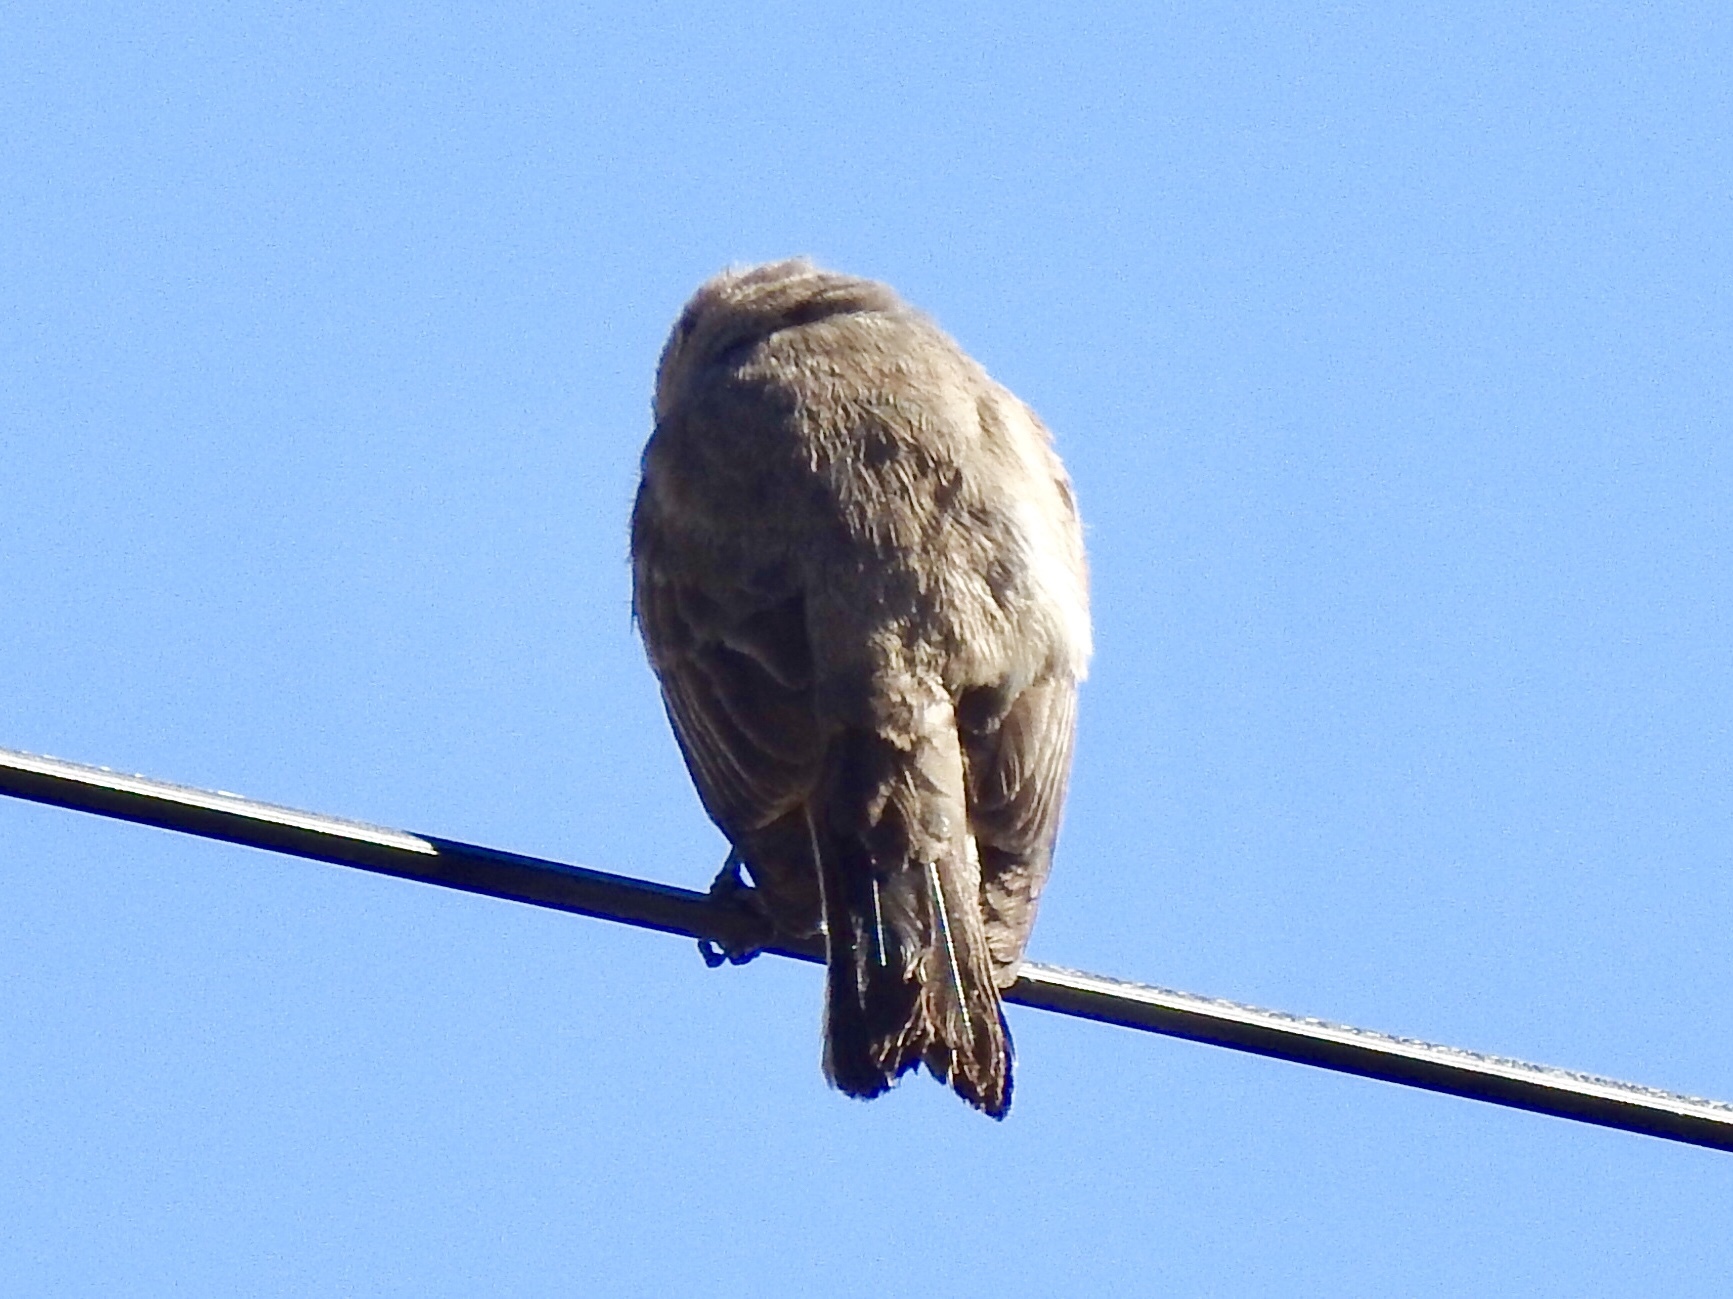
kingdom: Animalia
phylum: Chordata
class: Aves
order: Passeriformes
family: Tyrannidae
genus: Pyrocephalus
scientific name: Pyrocephalus rubinus
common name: Vermilion flycatcher
